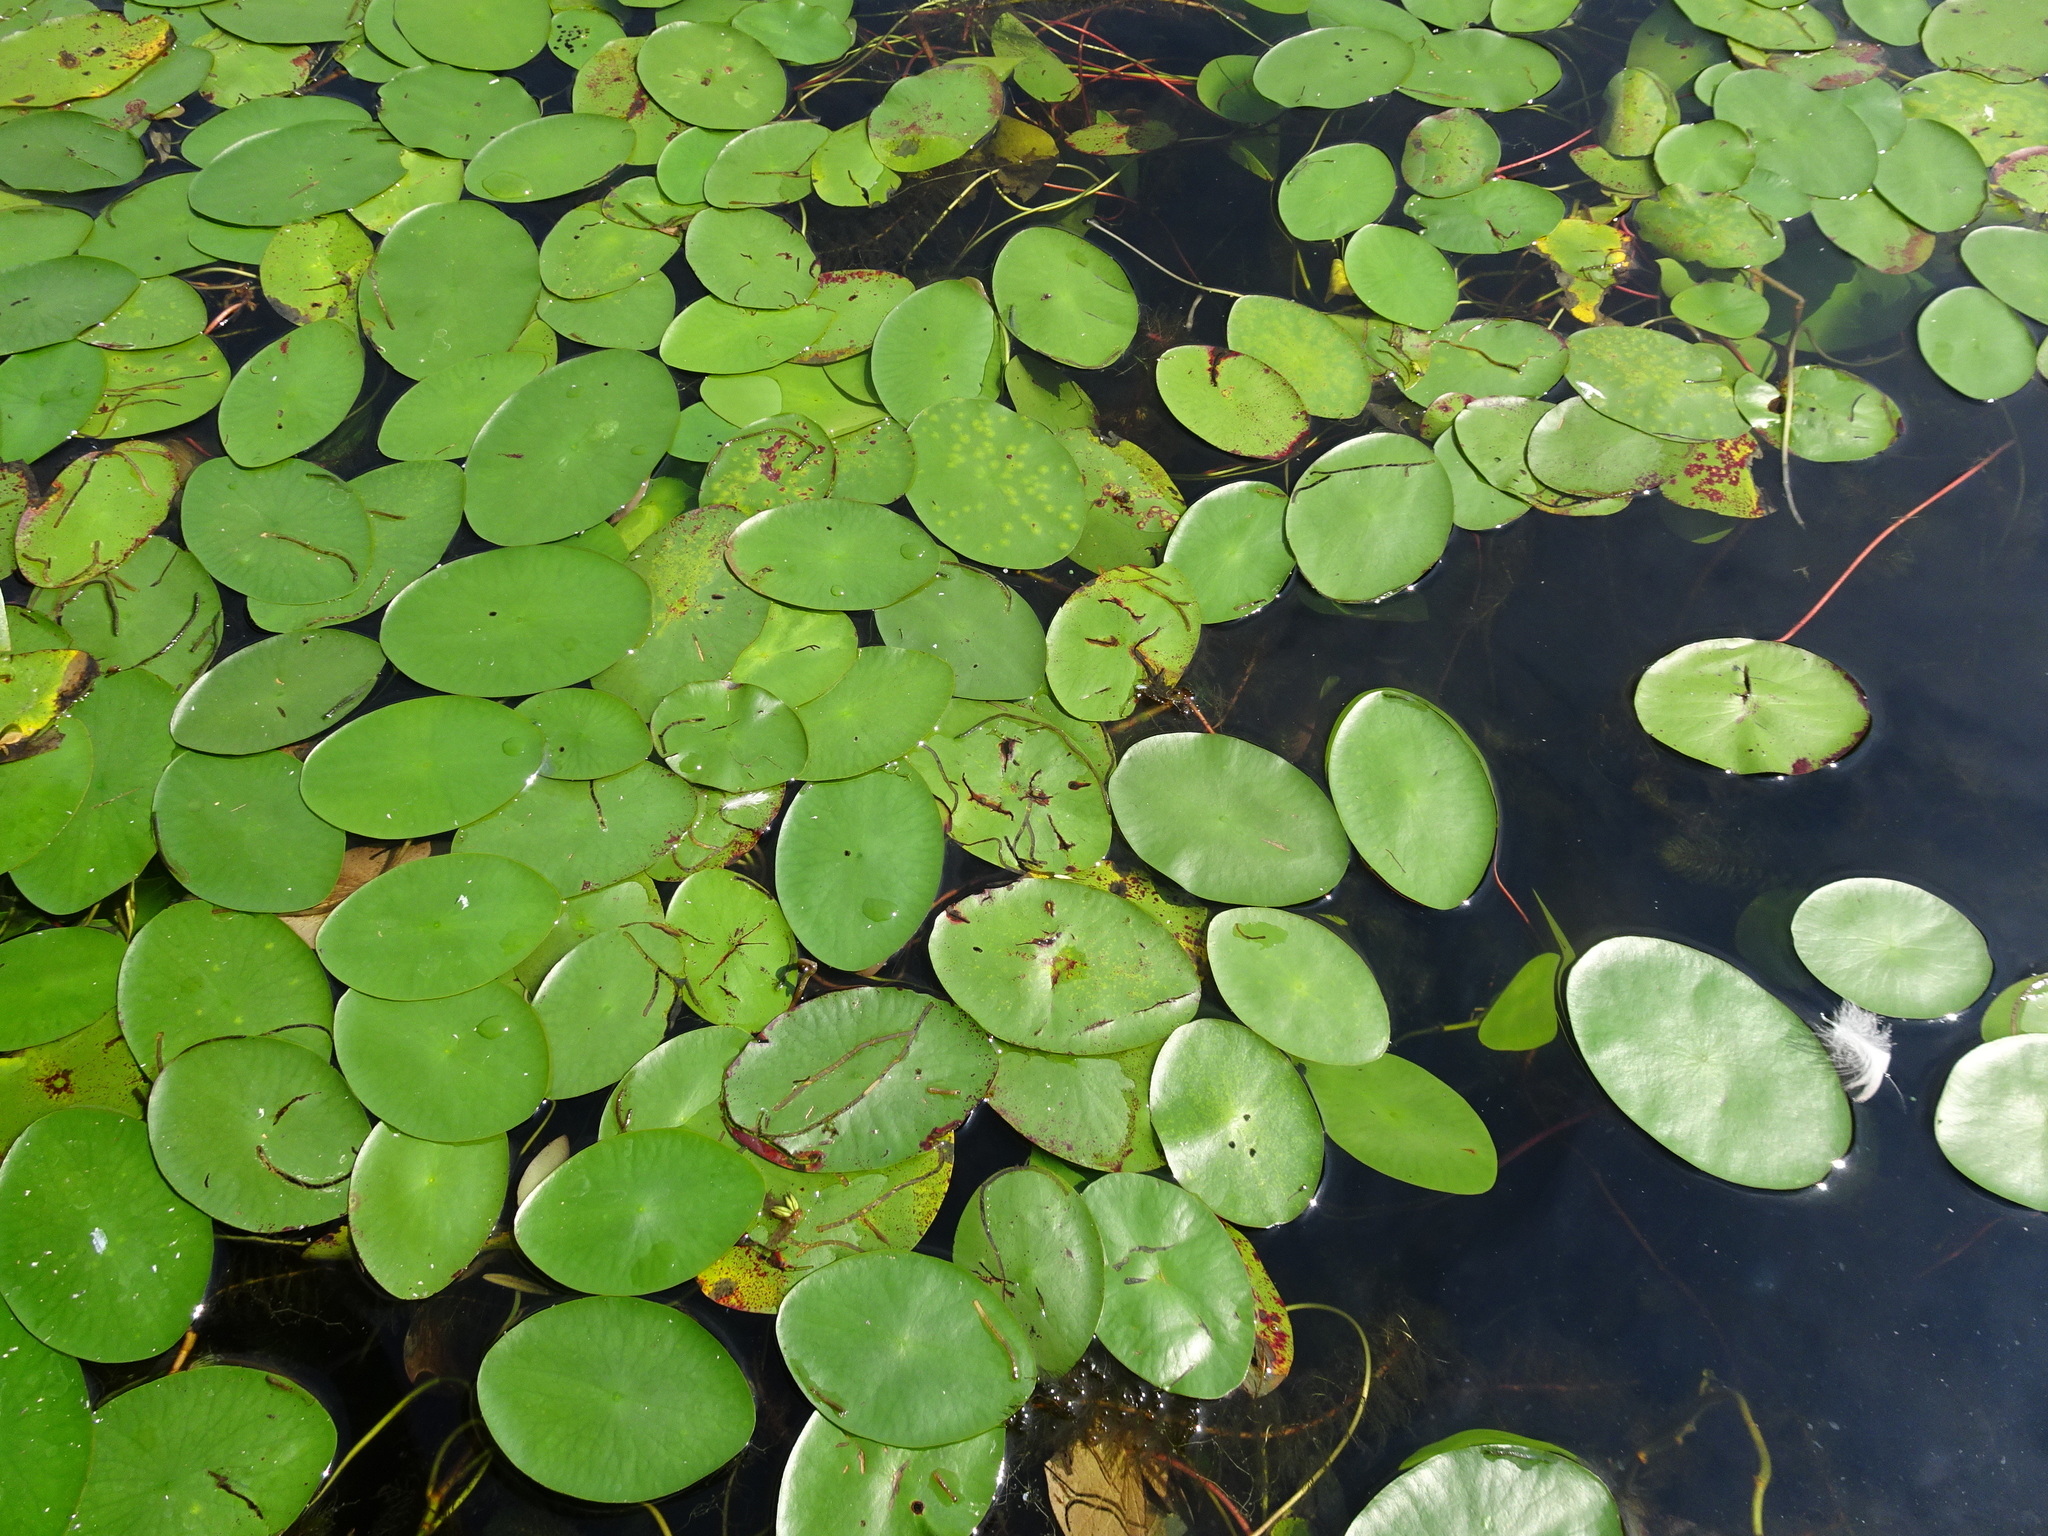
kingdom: Plantae
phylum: Tracheophyta
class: Magnoliopsida
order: Nymphaeales
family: Cabombaceae
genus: Brasenia
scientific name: Brasenia schreberi
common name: Water-shield
